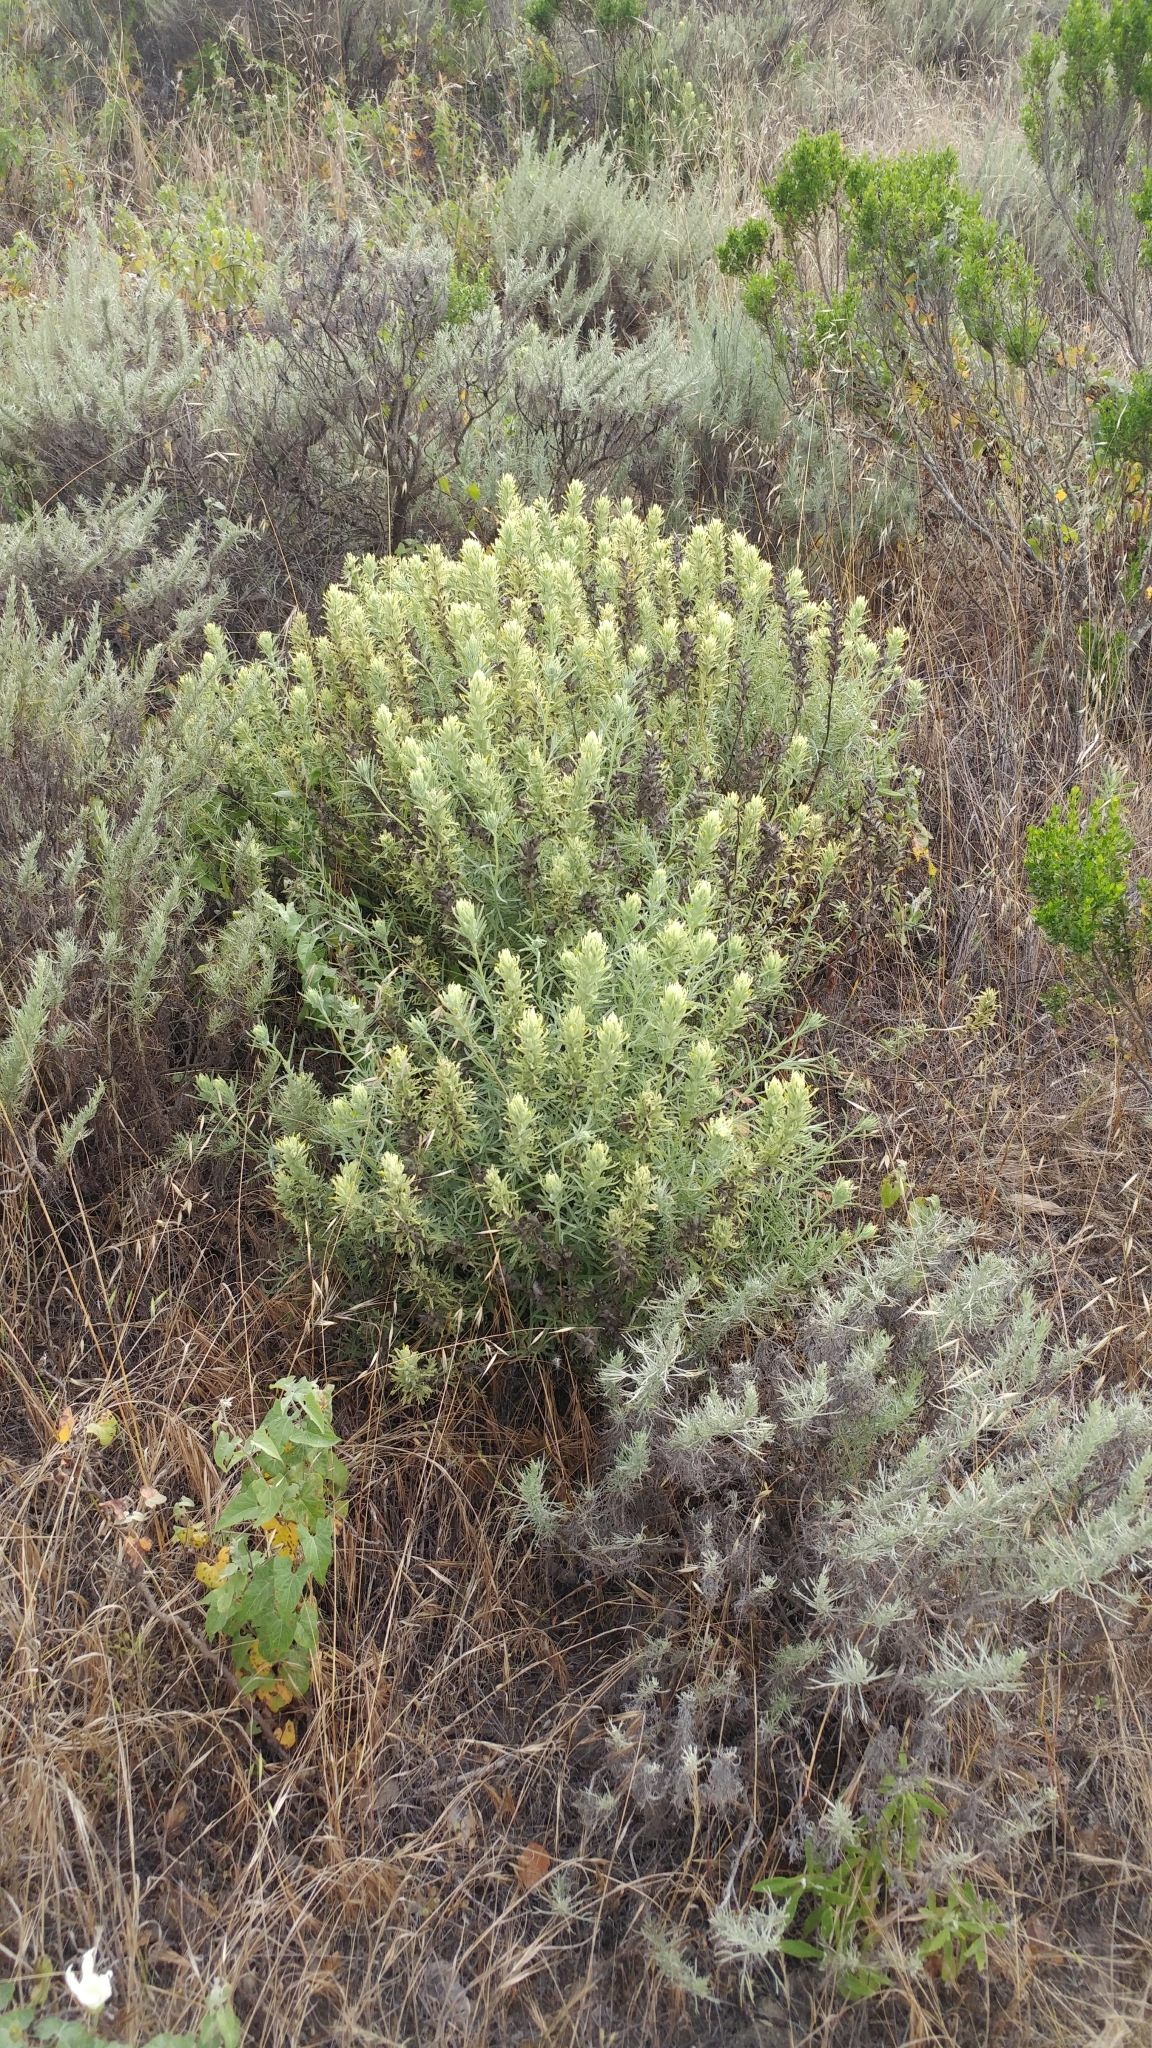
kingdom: Plantae
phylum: Tracheophyta
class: Magnoliopsida
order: Lamiales
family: Orobanchaceae
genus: Castilleja
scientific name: Castilleja grisea
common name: San clemente island indian paintbrush
